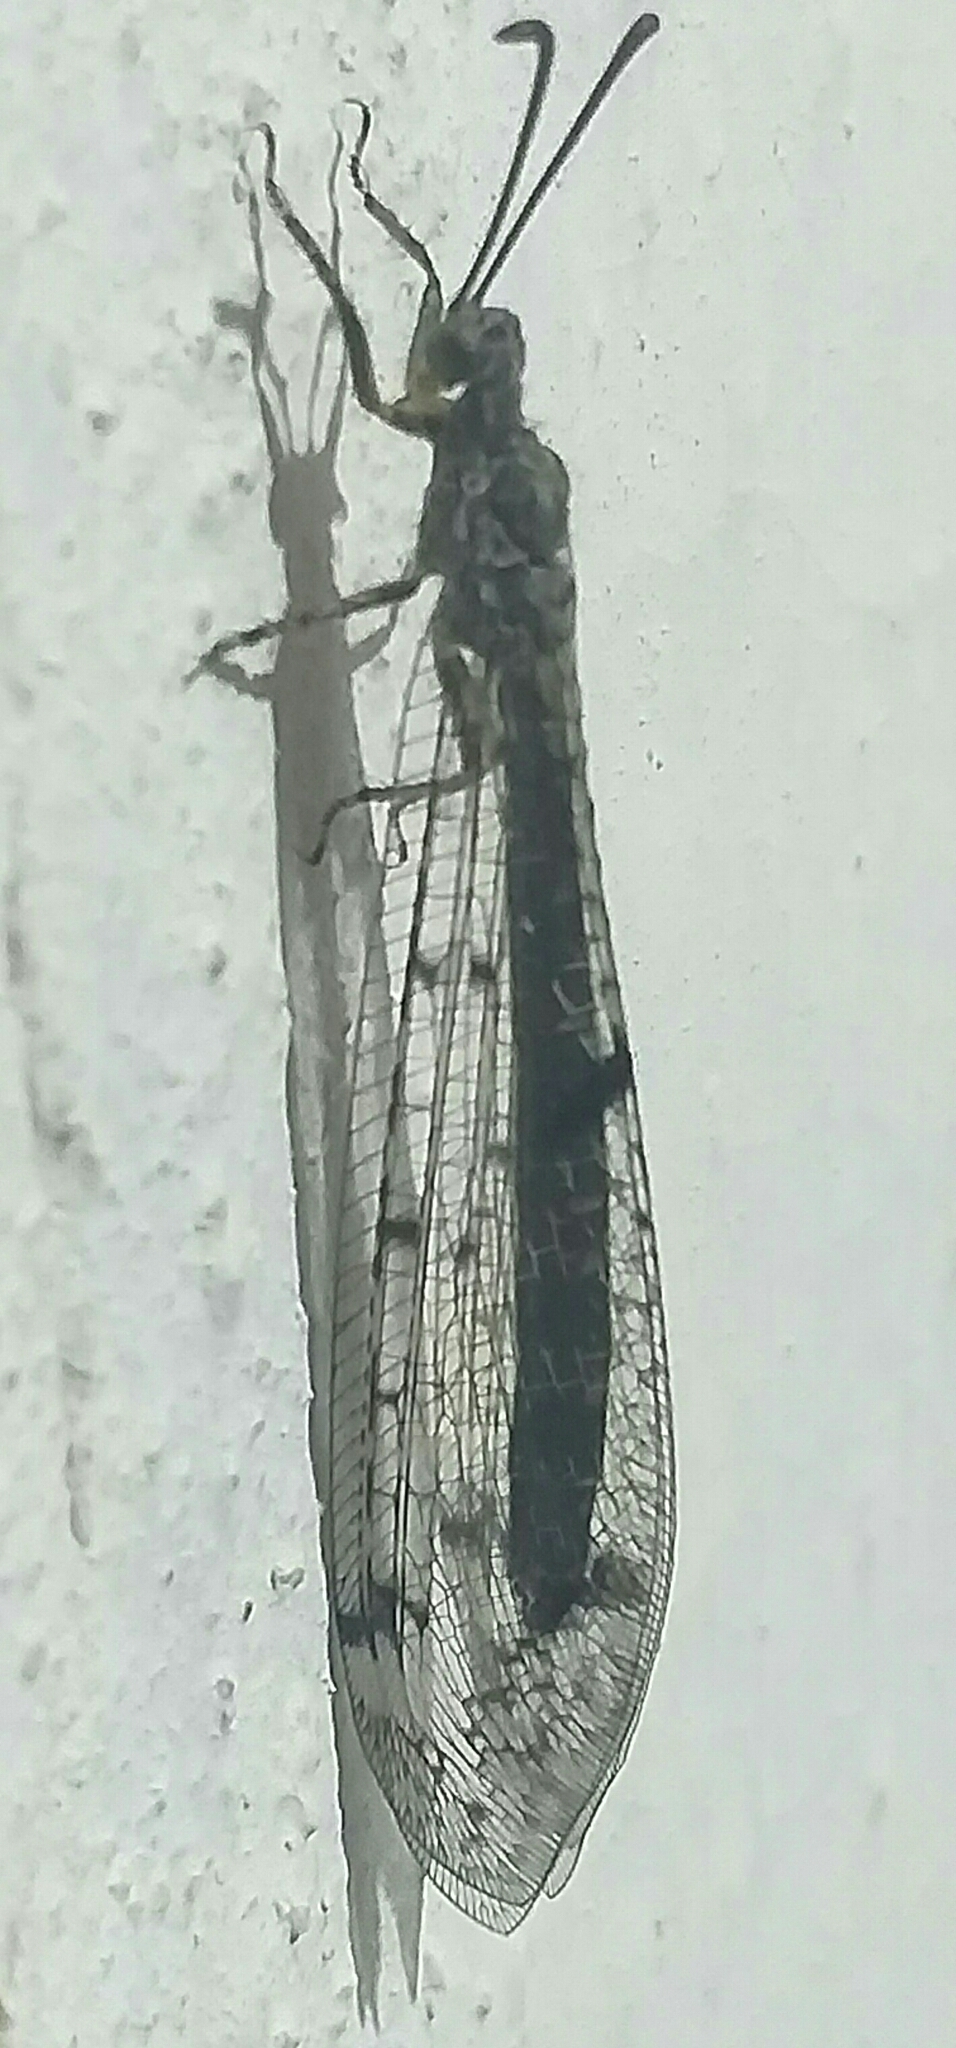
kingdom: Animalia
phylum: Arthropoda
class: Insecta
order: Neuroptera
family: Myrmeleontidae
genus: Distoleon
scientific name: Distoleon tetragrammicus
